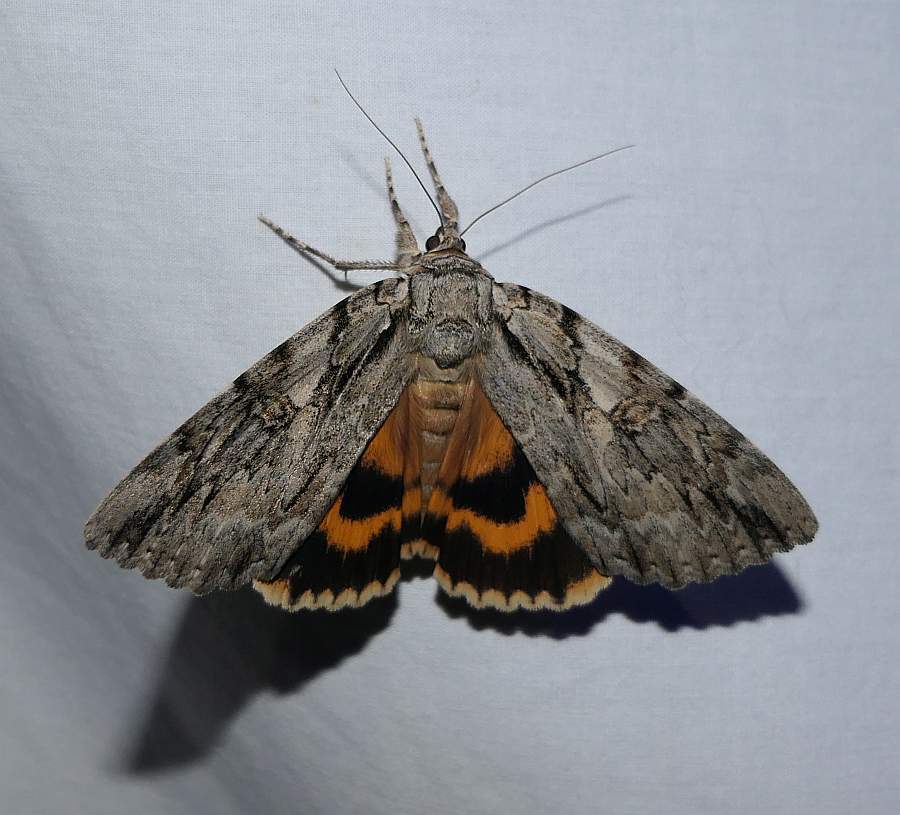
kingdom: Animalia
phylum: Arthropoda
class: Insecta
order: Lepidoptera
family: Erebidae
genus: Catocala
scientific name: Catocala subnata
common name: Youthful underwing
